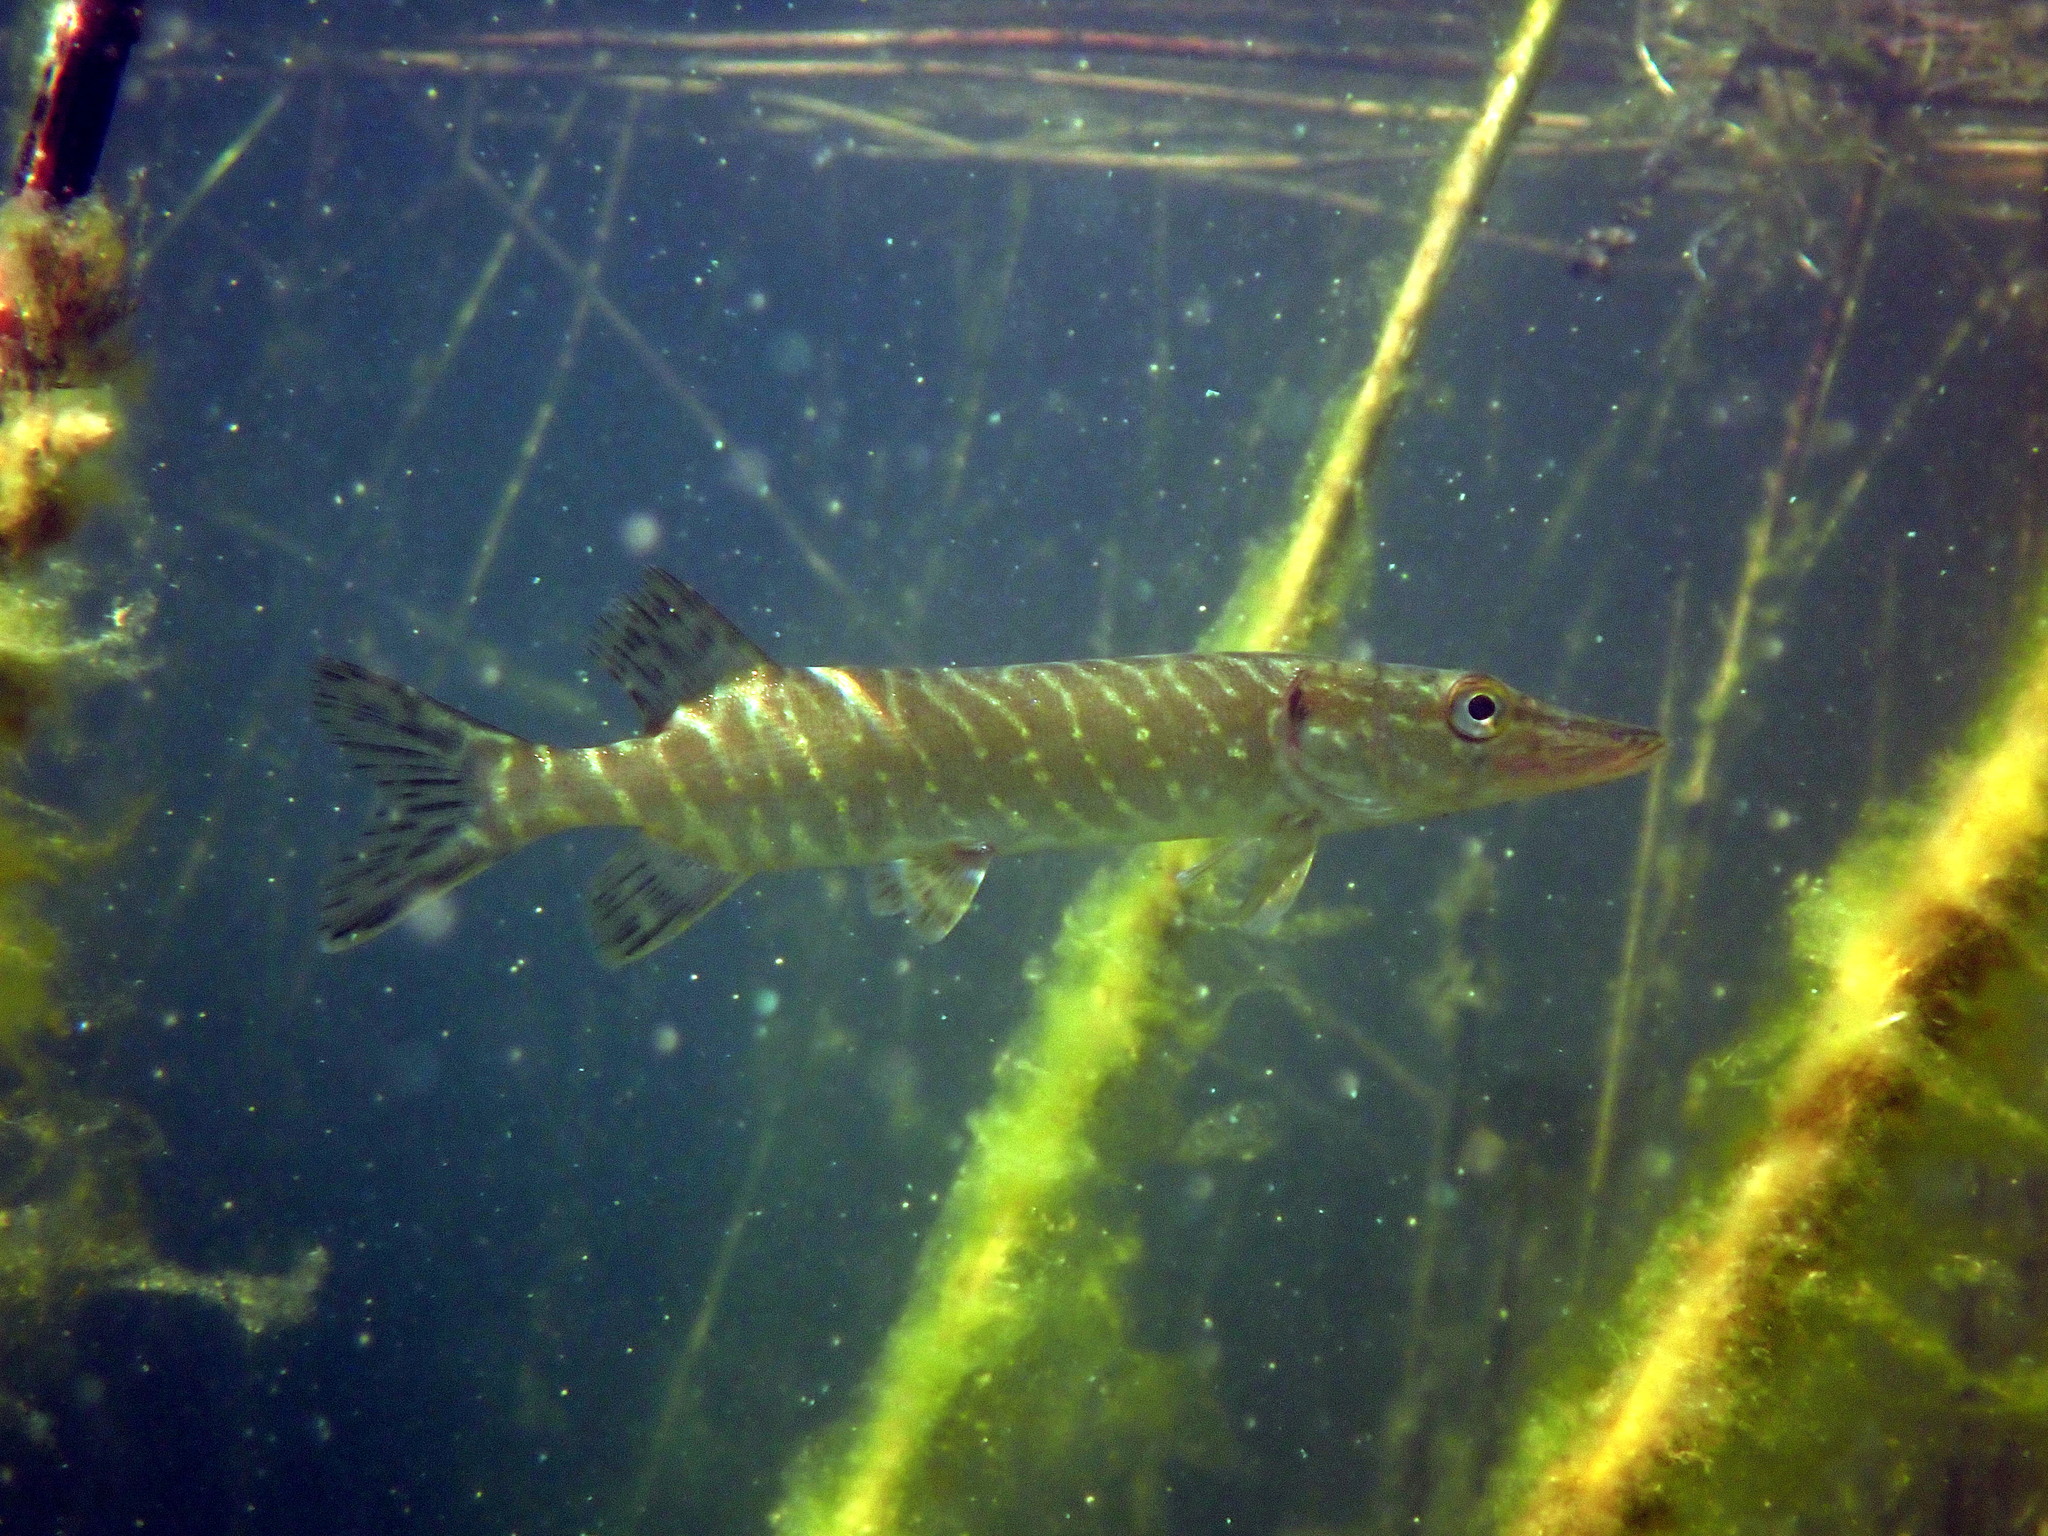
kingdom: Animalia
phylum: Chordata
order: Esociformes
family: Esocidae
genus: Esox
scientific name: Esox lucius
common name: Northern pike
